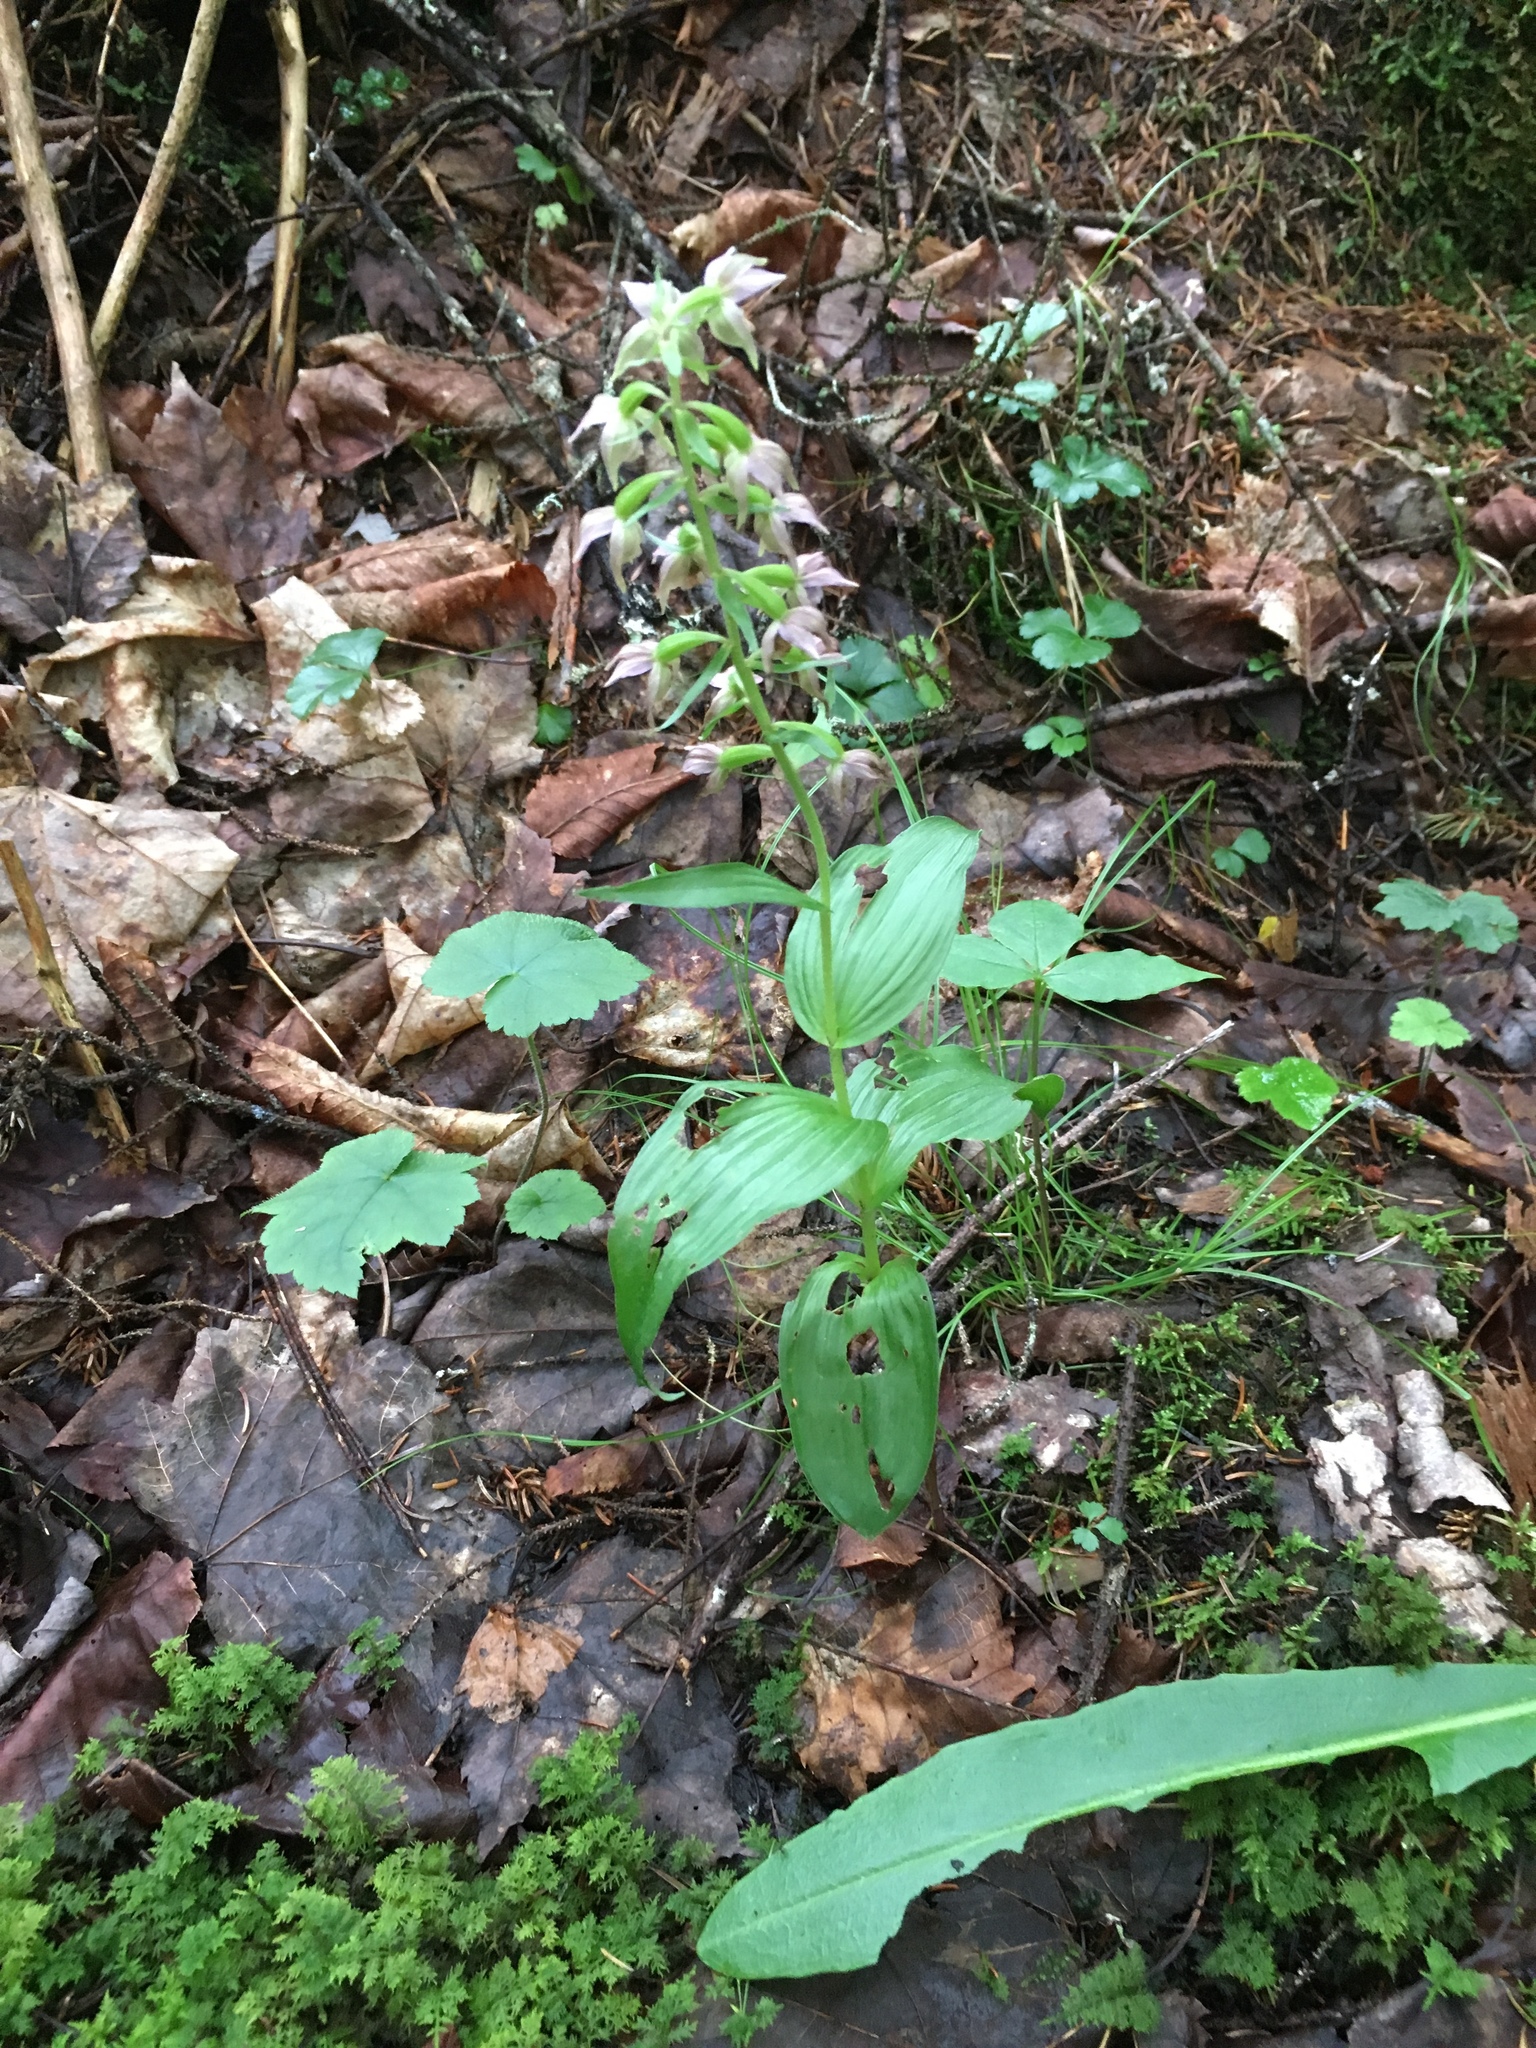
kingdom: Plantae
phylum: Tracheophyta
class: Liliopsida
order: Asparagales
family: Orchidaceae
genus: Epipactis
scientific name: Epipactis helleborine
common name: Broad-leaved helleborine
